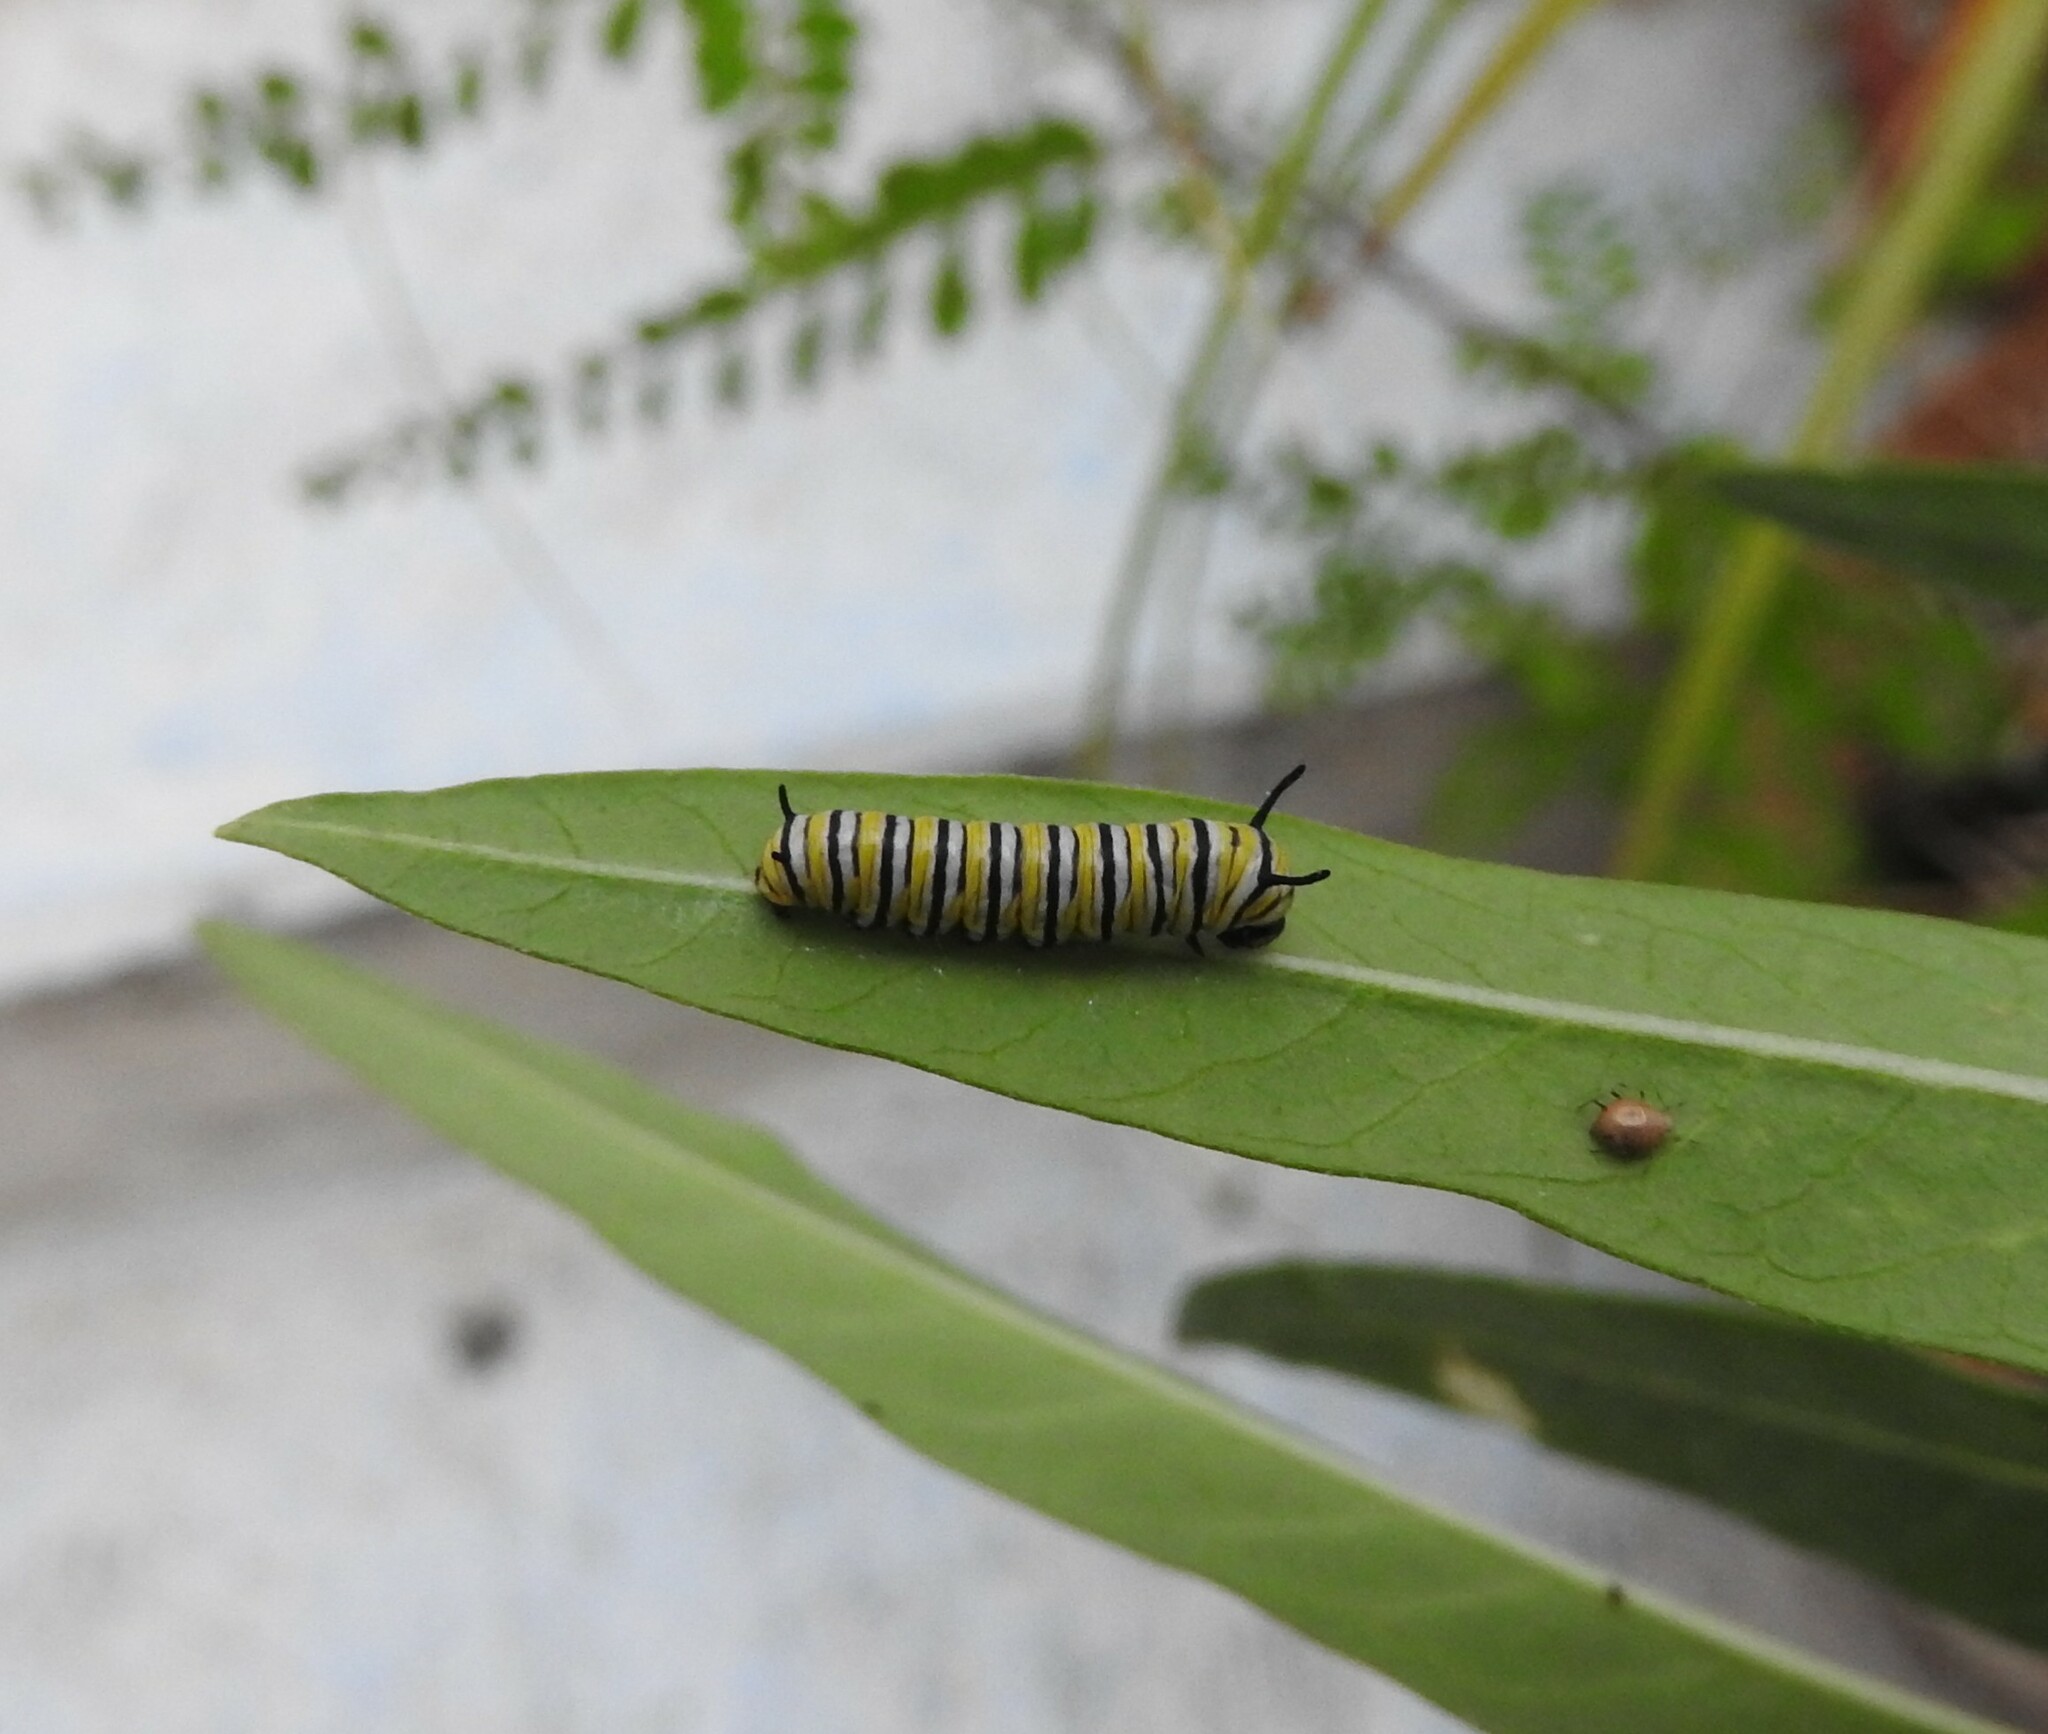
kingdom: Animalia
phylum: Arthropoda
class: Insecta
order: Lepidoptera
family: Nymphalidae
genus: Danaus
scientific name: Danaus plexippus
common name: Monarch
